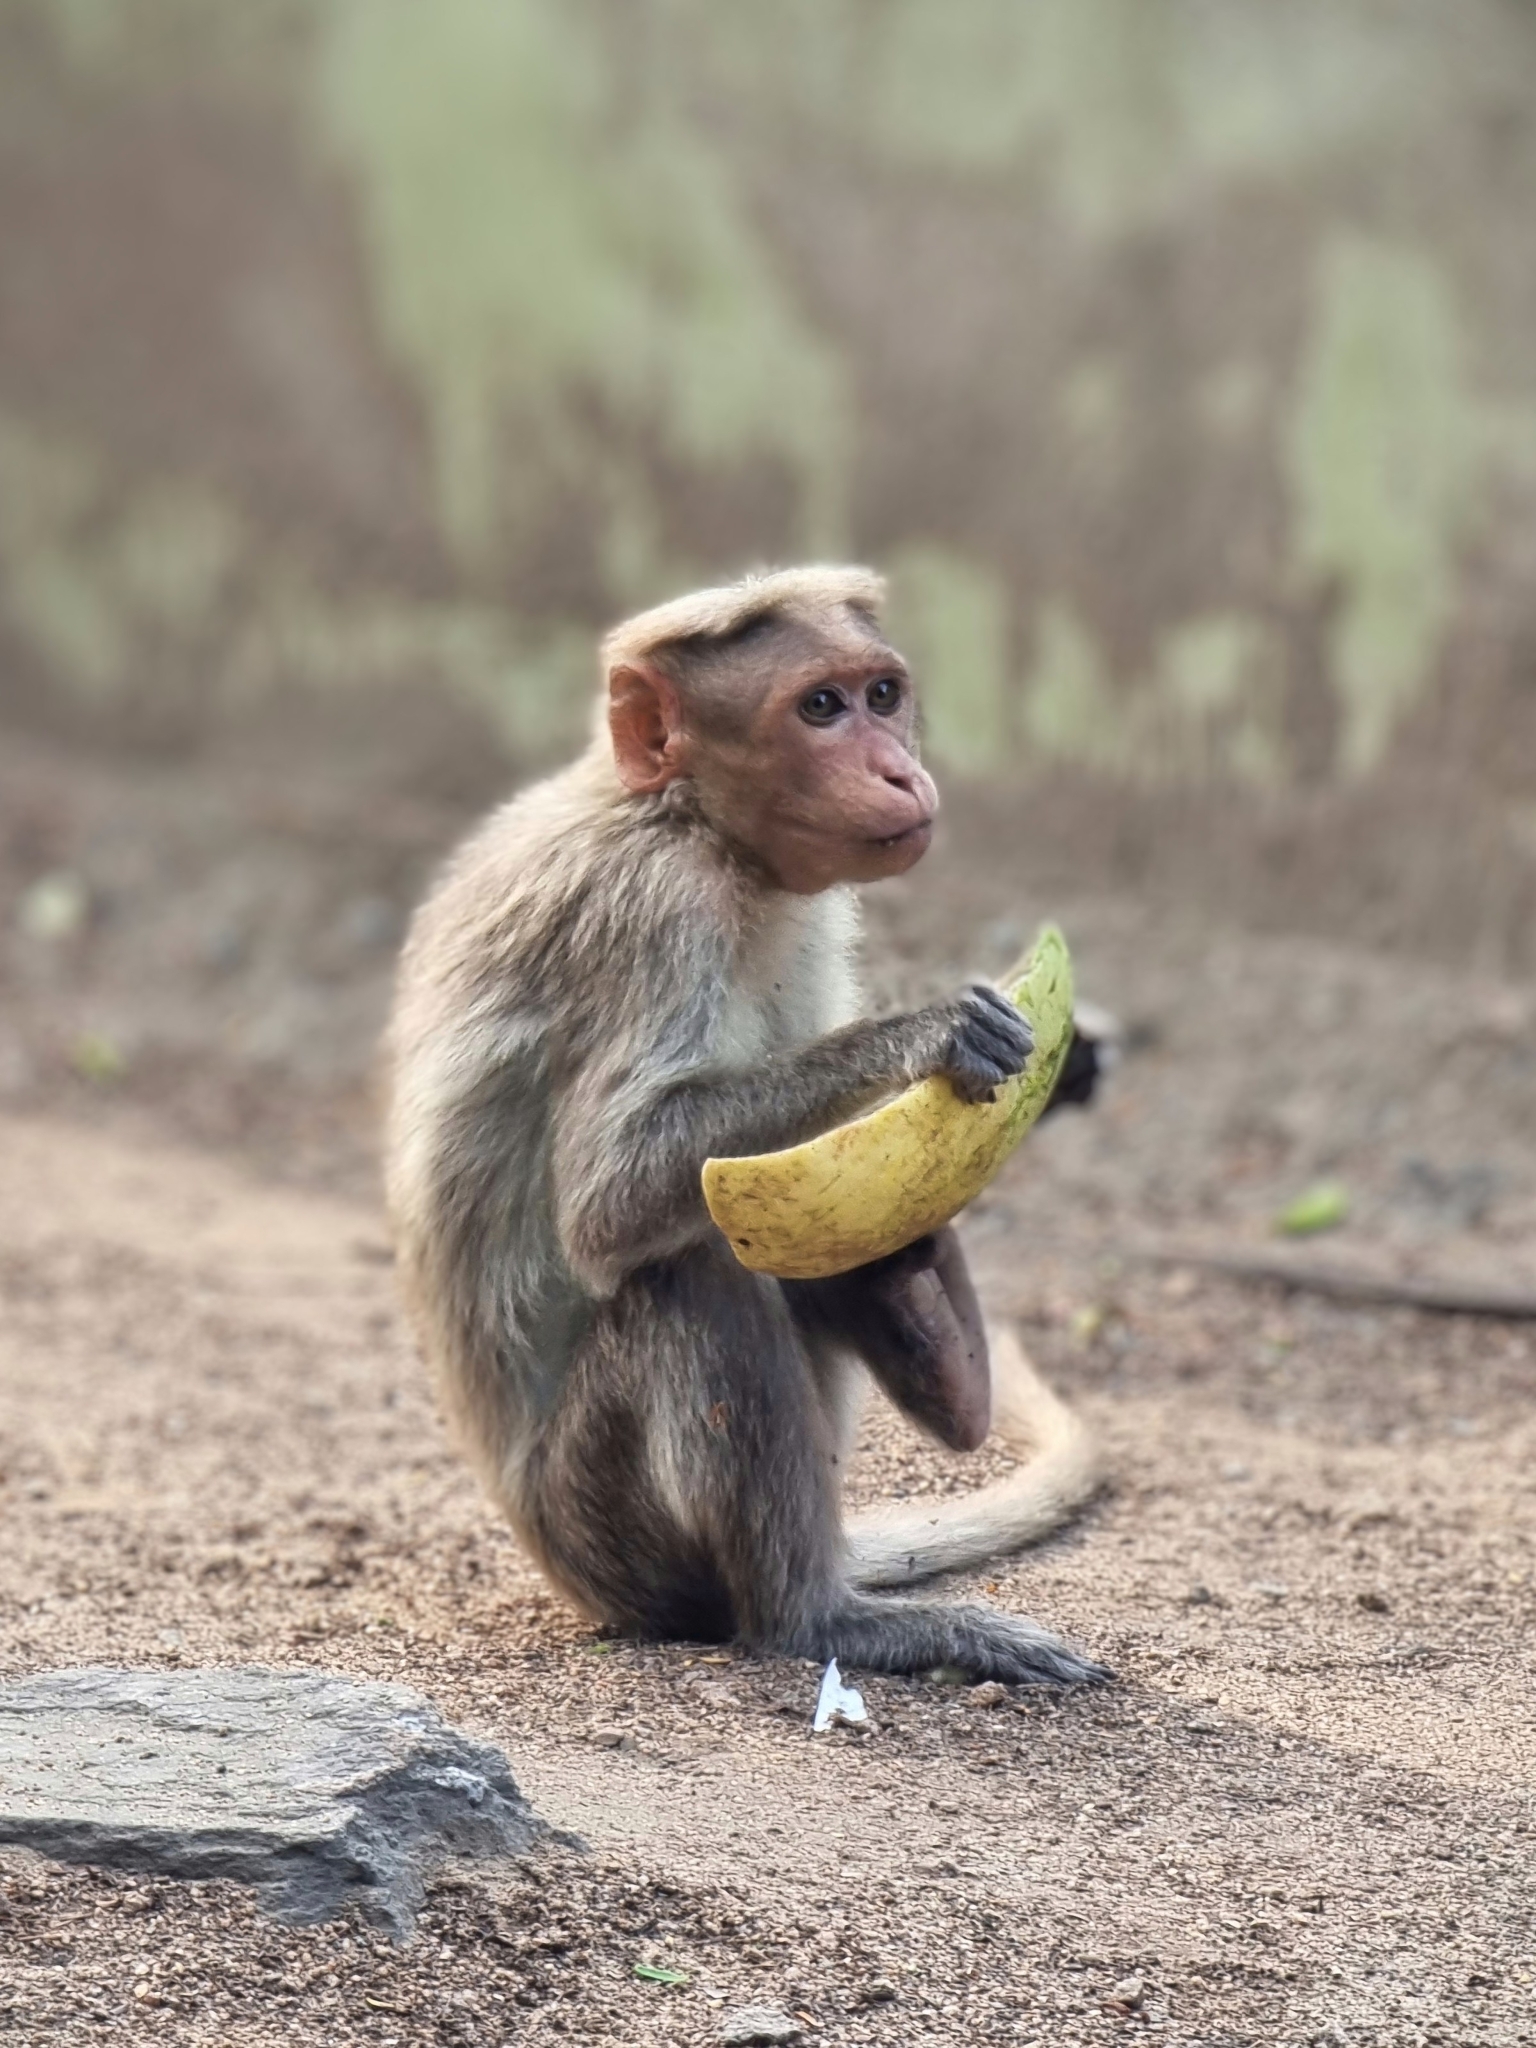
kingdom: Animalia
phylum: Chordata
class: Mammalia
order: Primates
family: Cercopithecidae
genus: Macaca
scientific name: Macaca radiata
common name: Bonnet macaque
